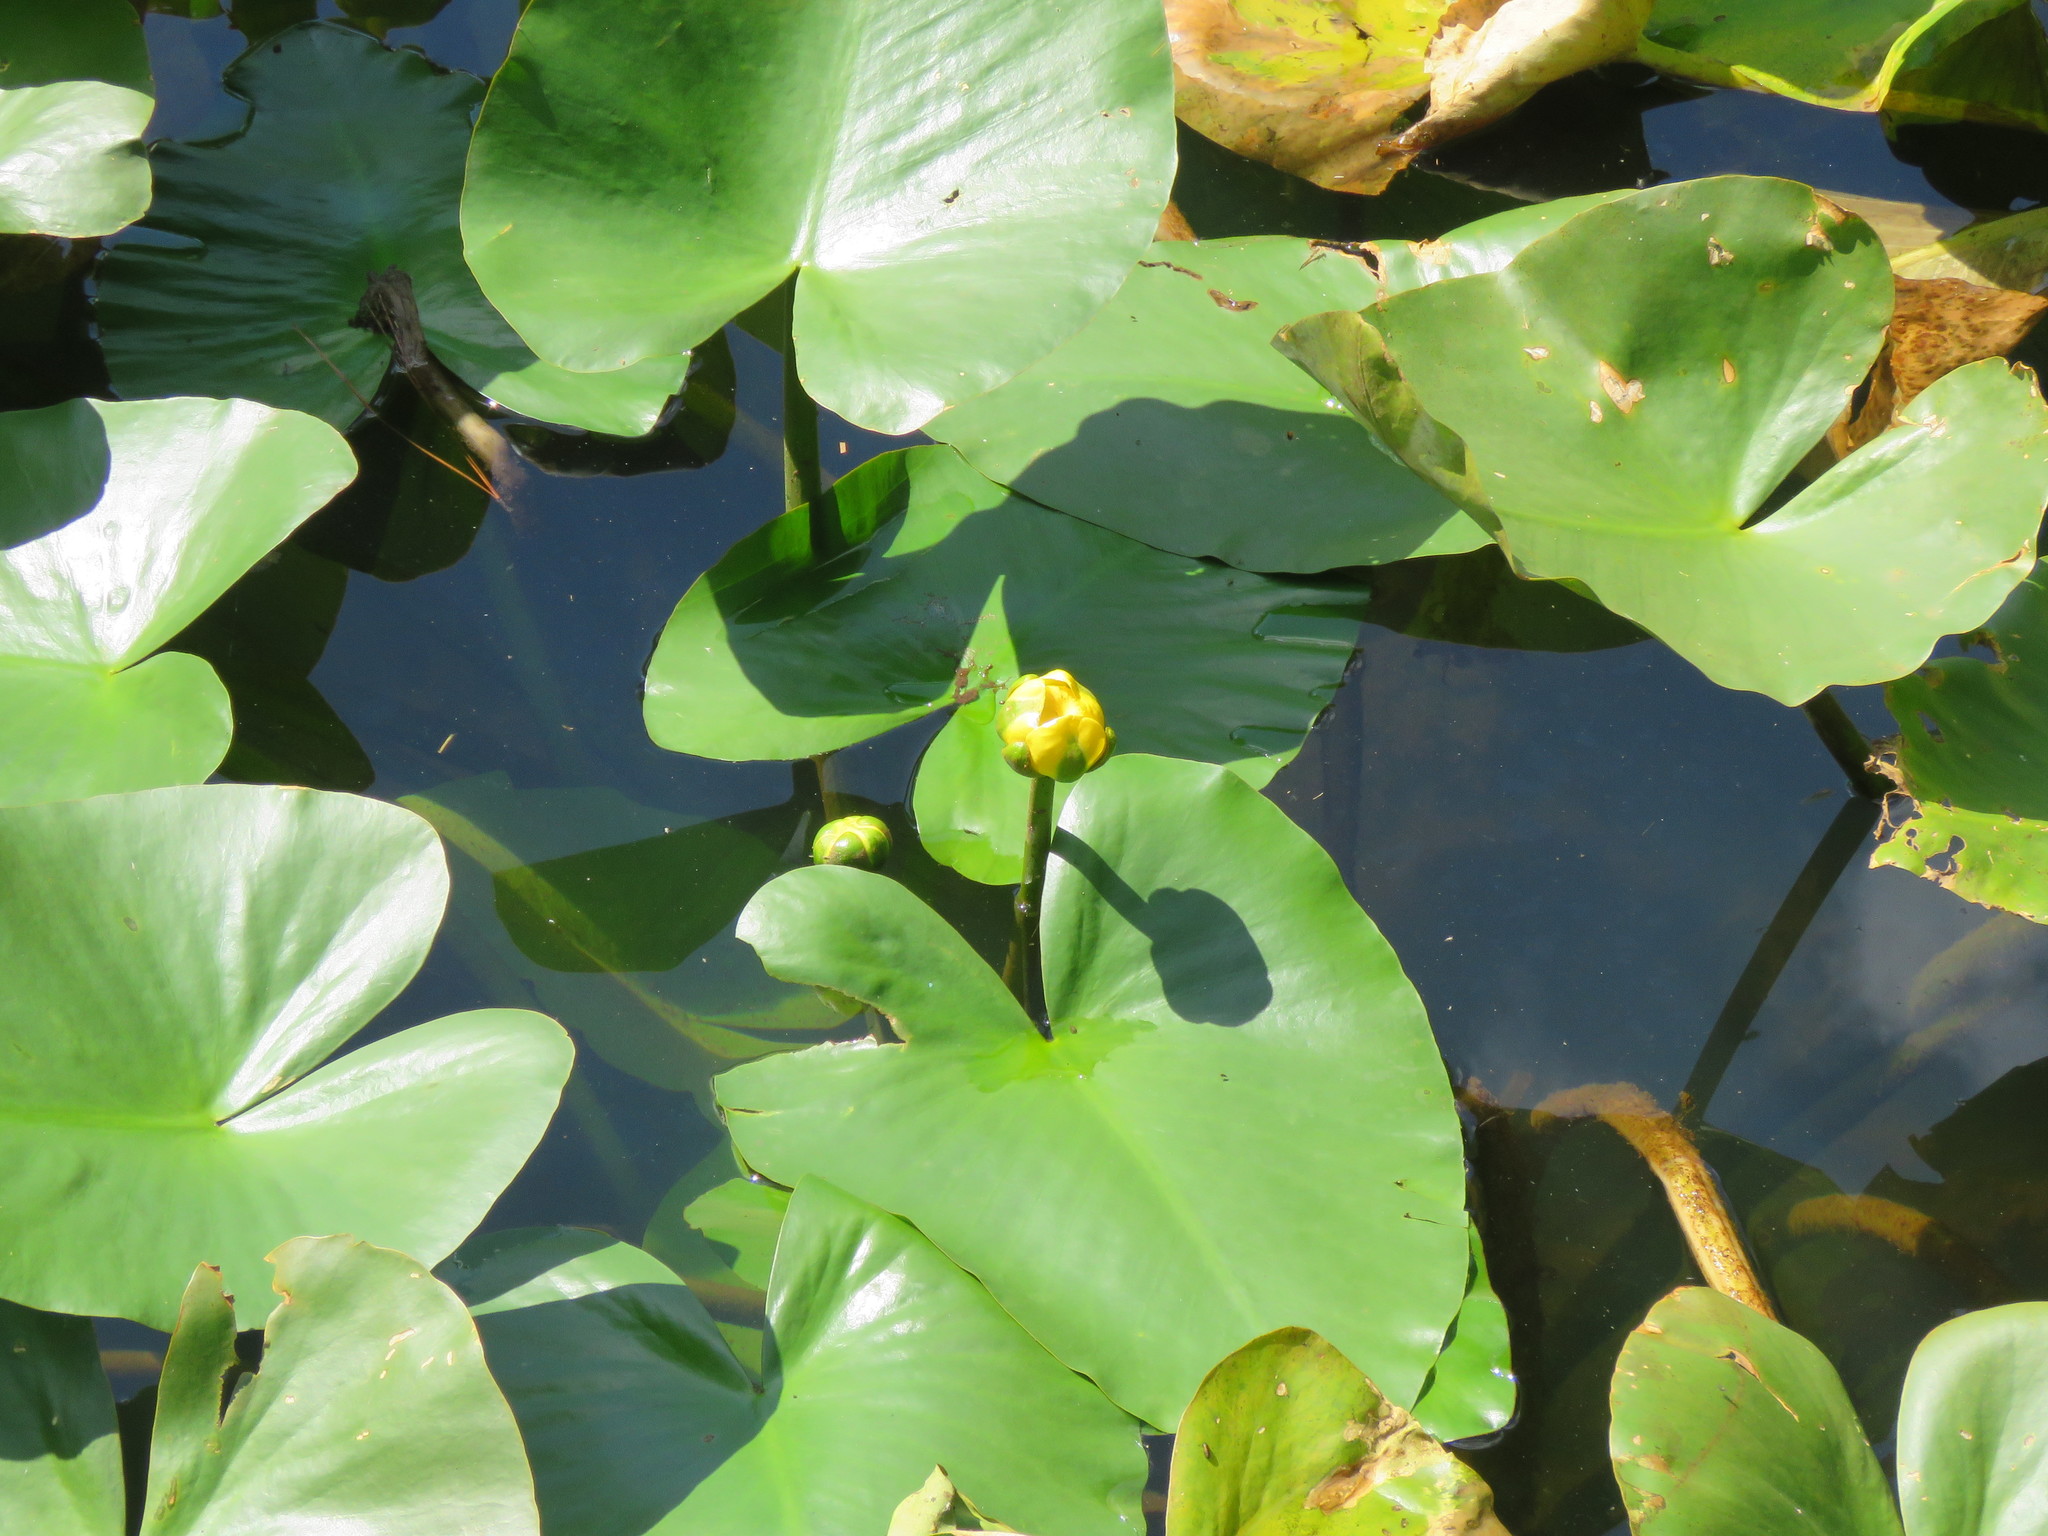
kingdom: Plantae
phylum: Tracheophyta
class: Magnoliopsida
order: Nymphaeales
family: Nymphaeaceae
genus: Nuphar
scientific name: Nuphar advena
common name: Spatter-dock
